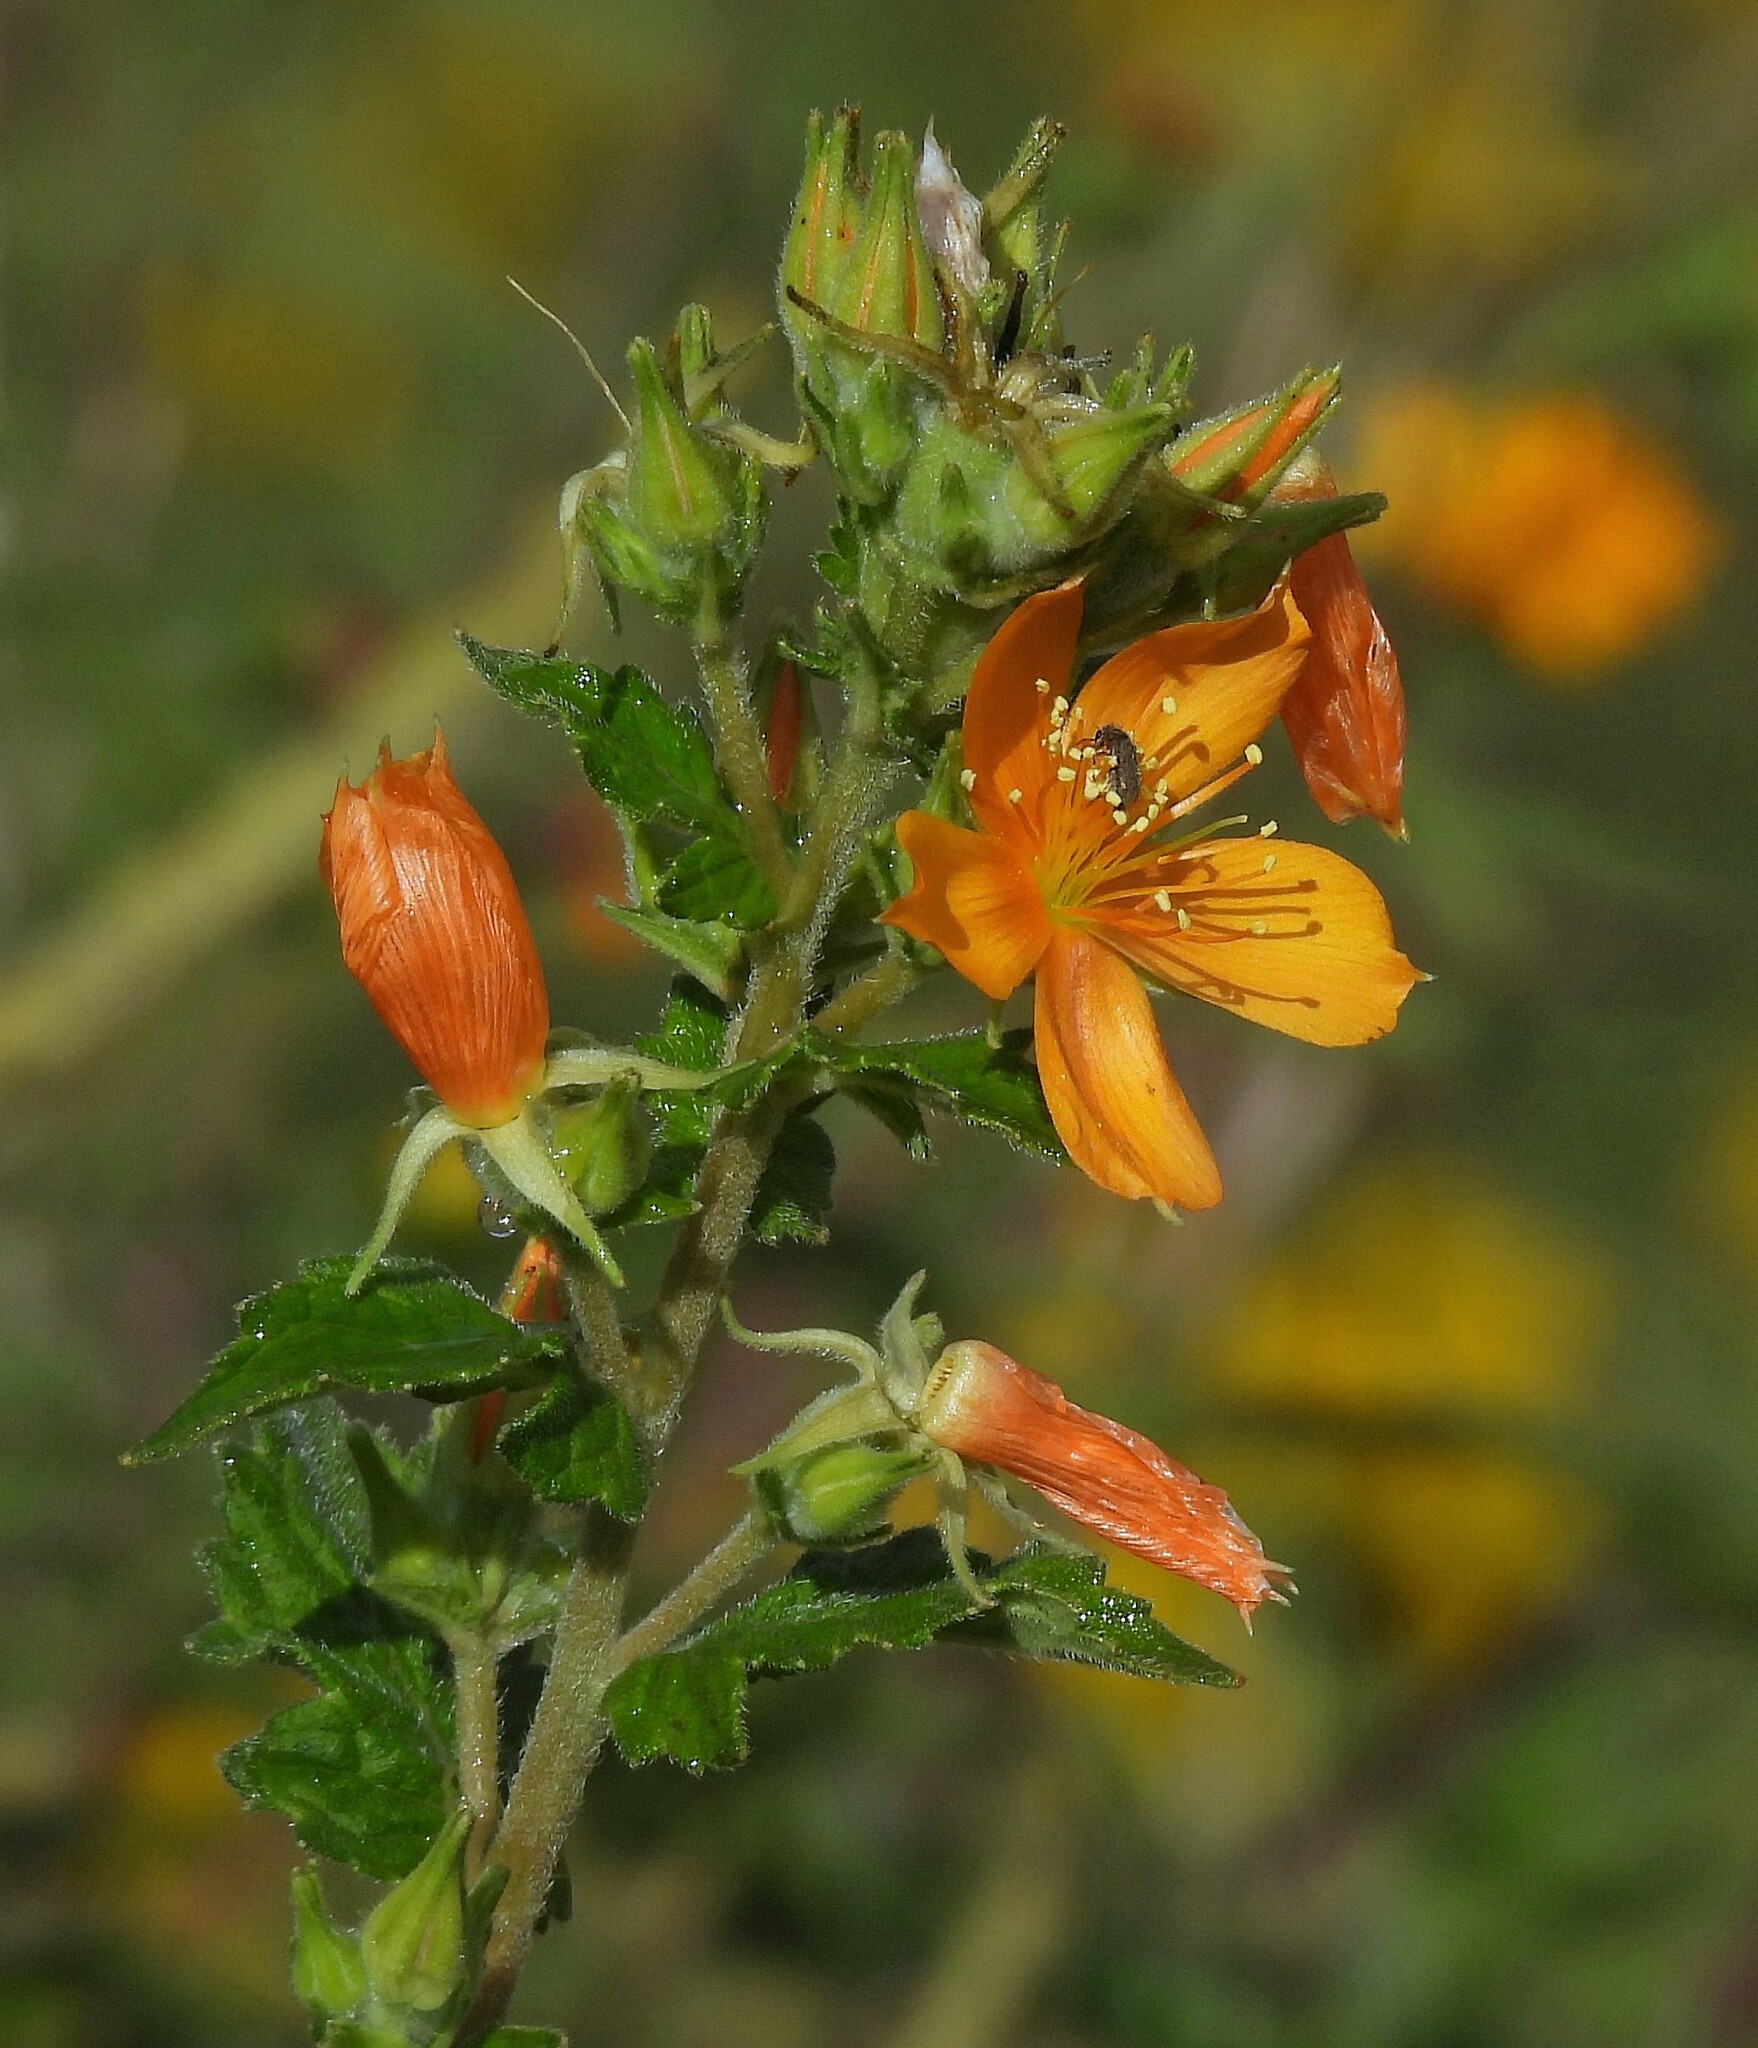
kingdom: Plantae
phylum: Tracheophyta
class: Magnoliopsida
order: Cornales
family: Loasaceae
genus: Mentzelia
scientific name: Mentzelia scabra
